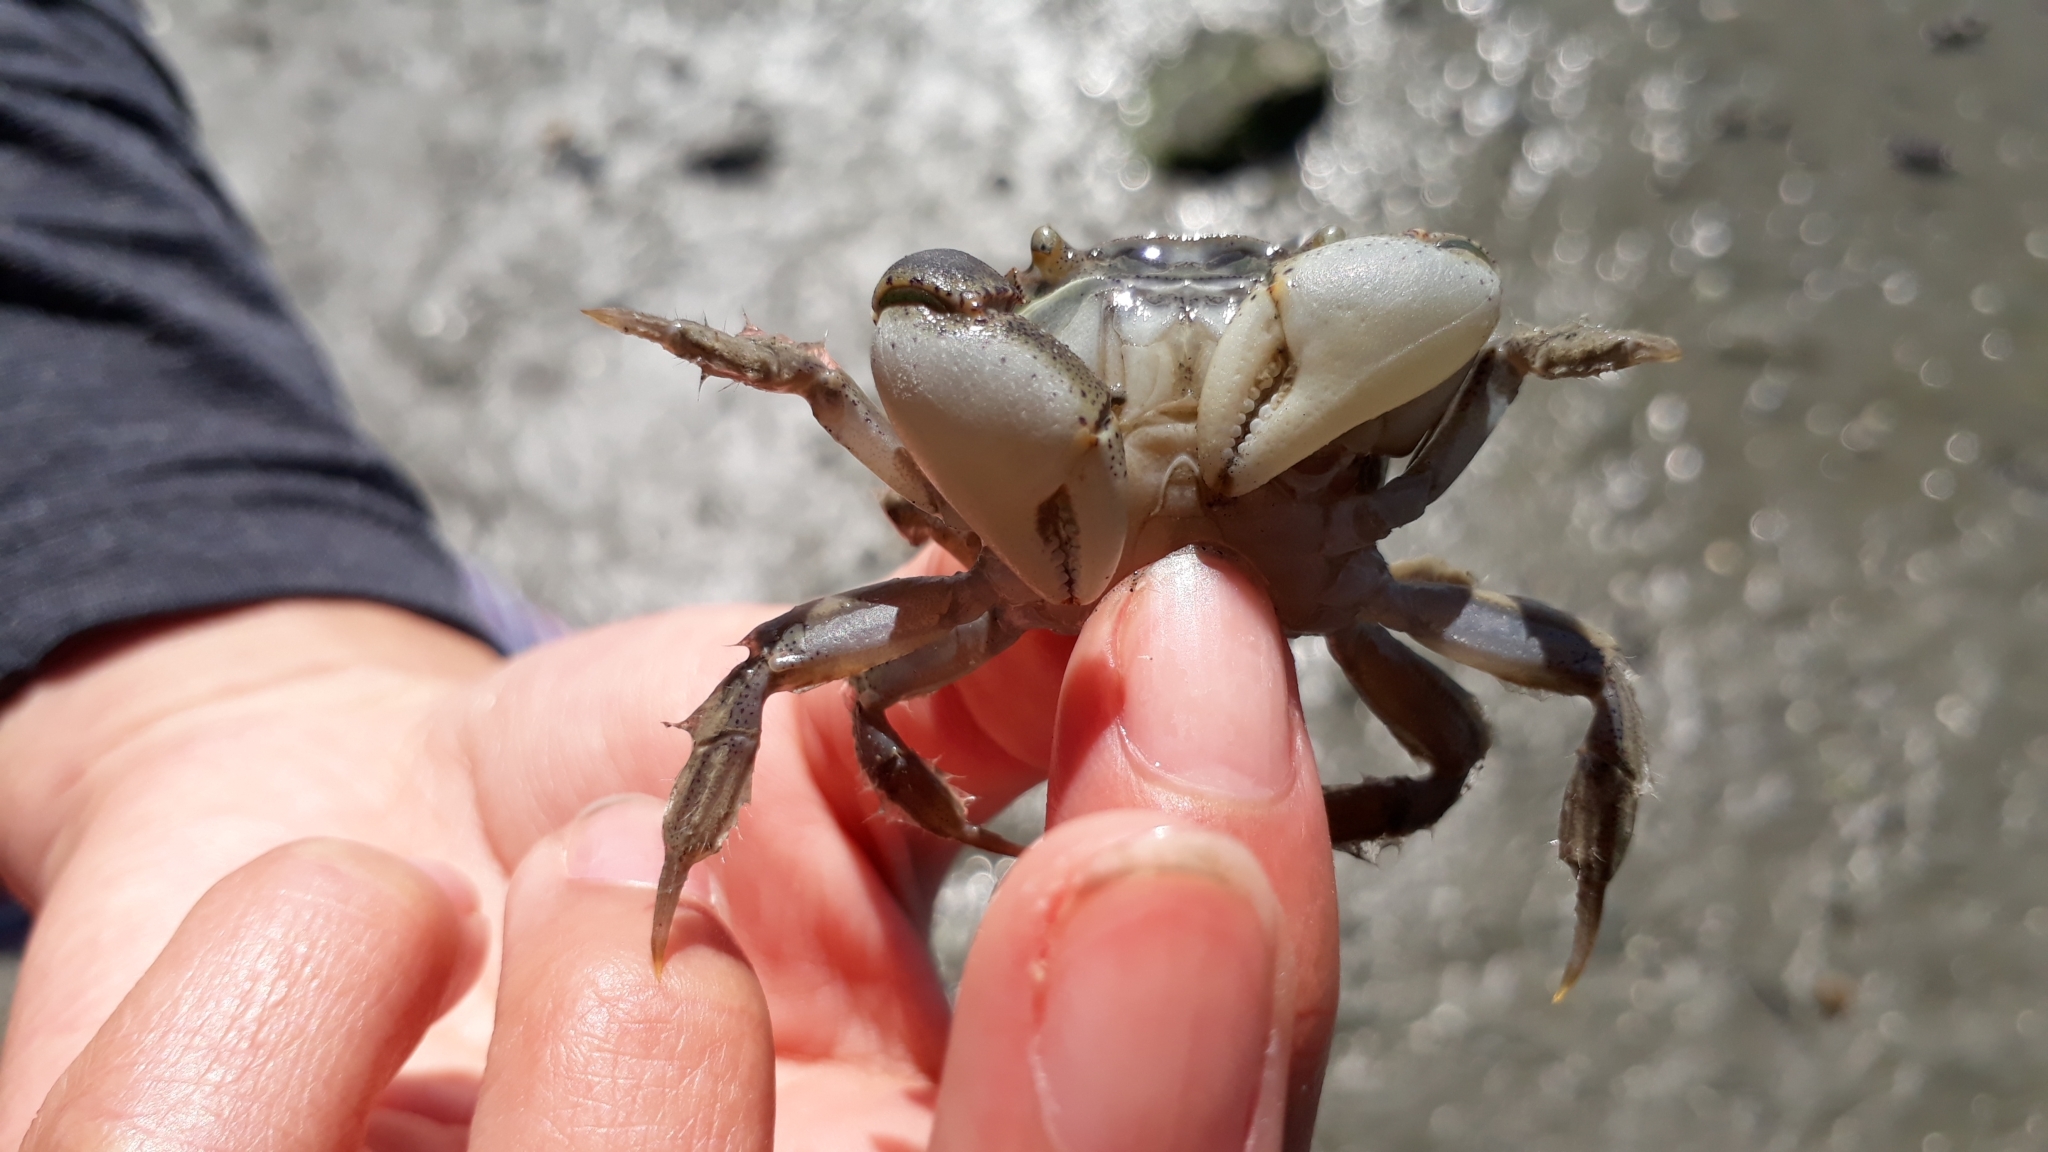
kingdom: Animalia
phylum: Arthropoda
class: Malacostraca
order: Decapoda
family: Varunidae
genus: Hemigrapsus
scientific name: Hemigrapsus crenulatus
